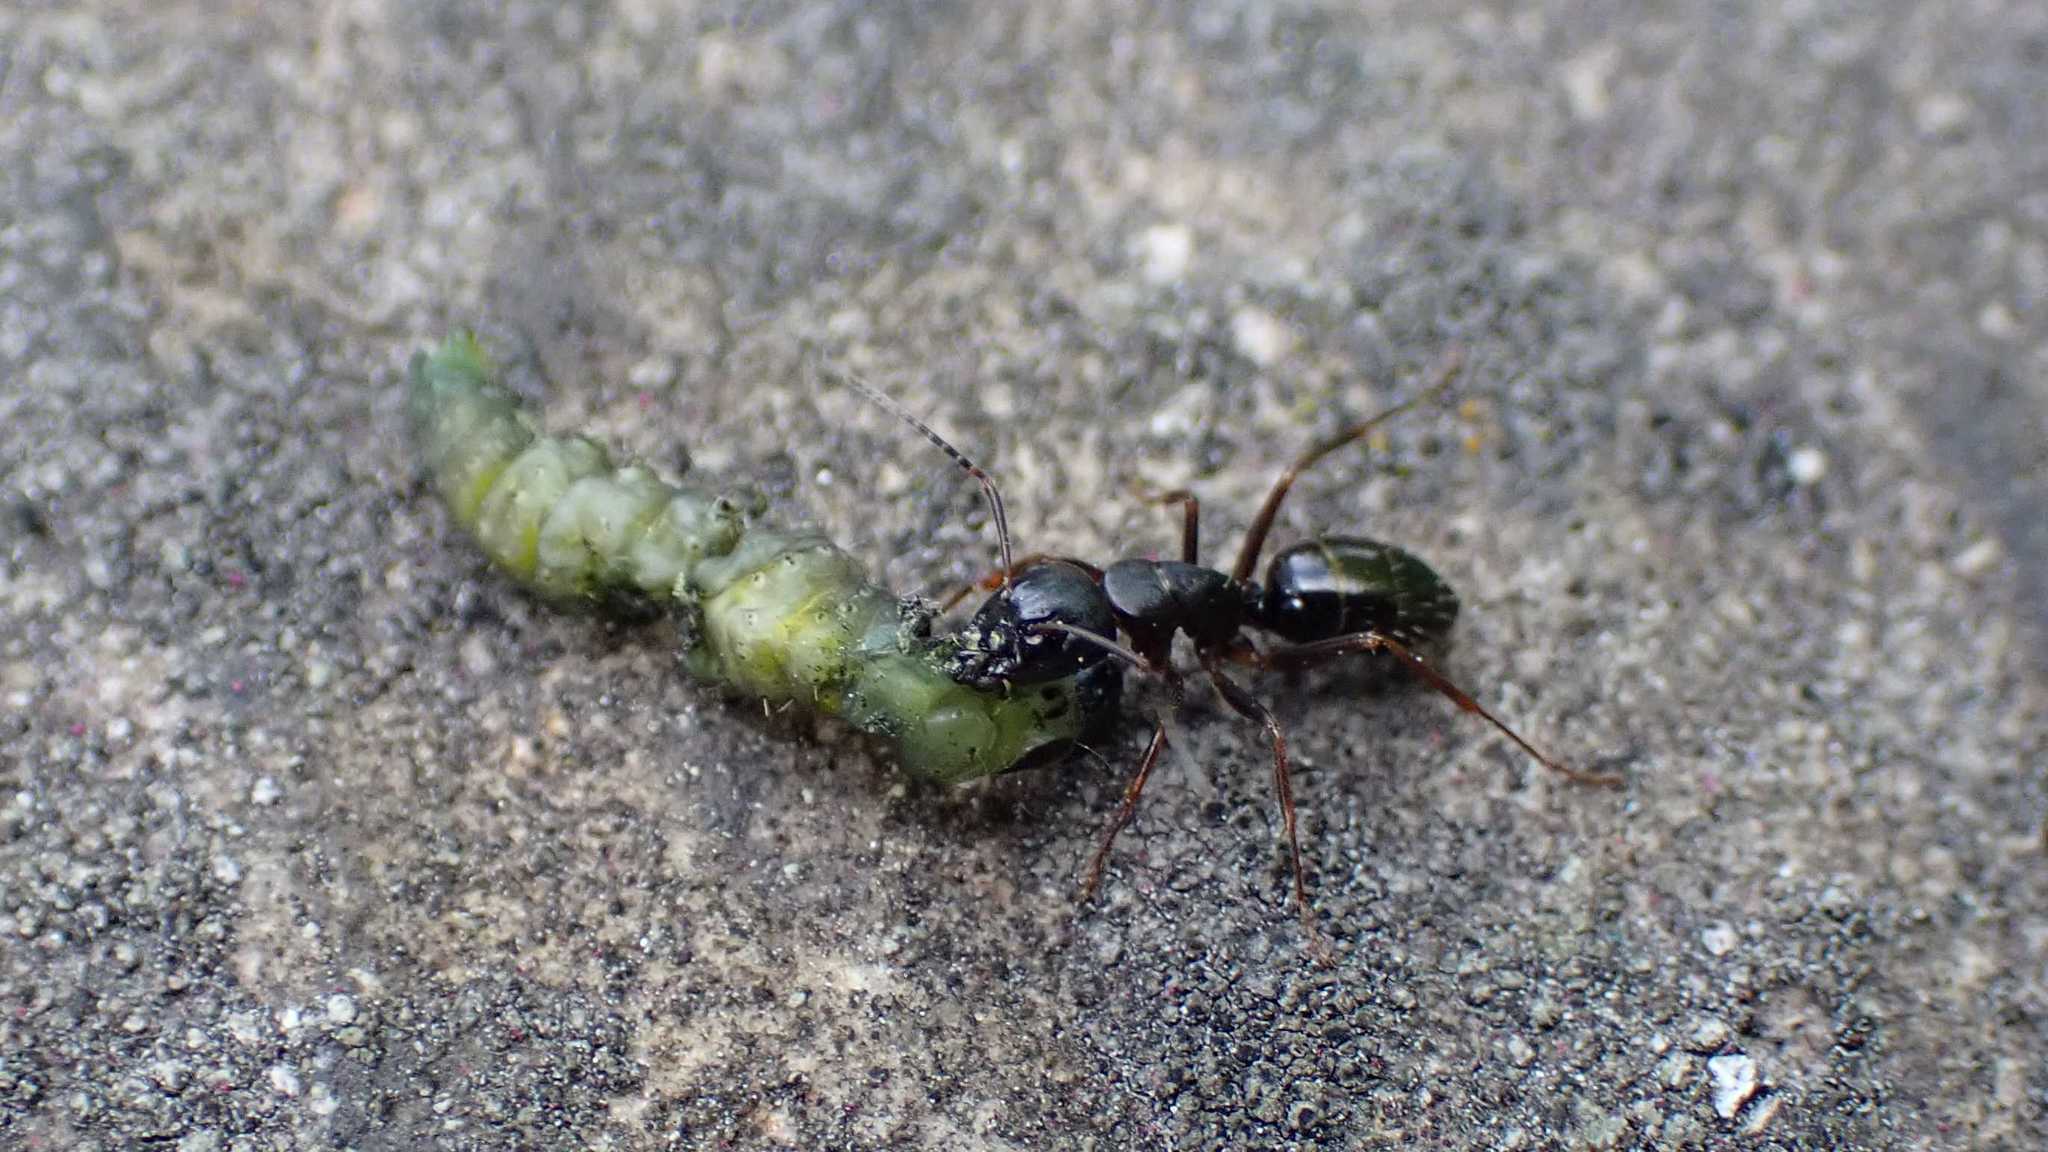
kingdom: Animalia
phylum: Arthropoda
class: Insecta
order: Hymenoptera
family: Formicidae
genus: Camponotus
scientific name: Camponotus fallax
